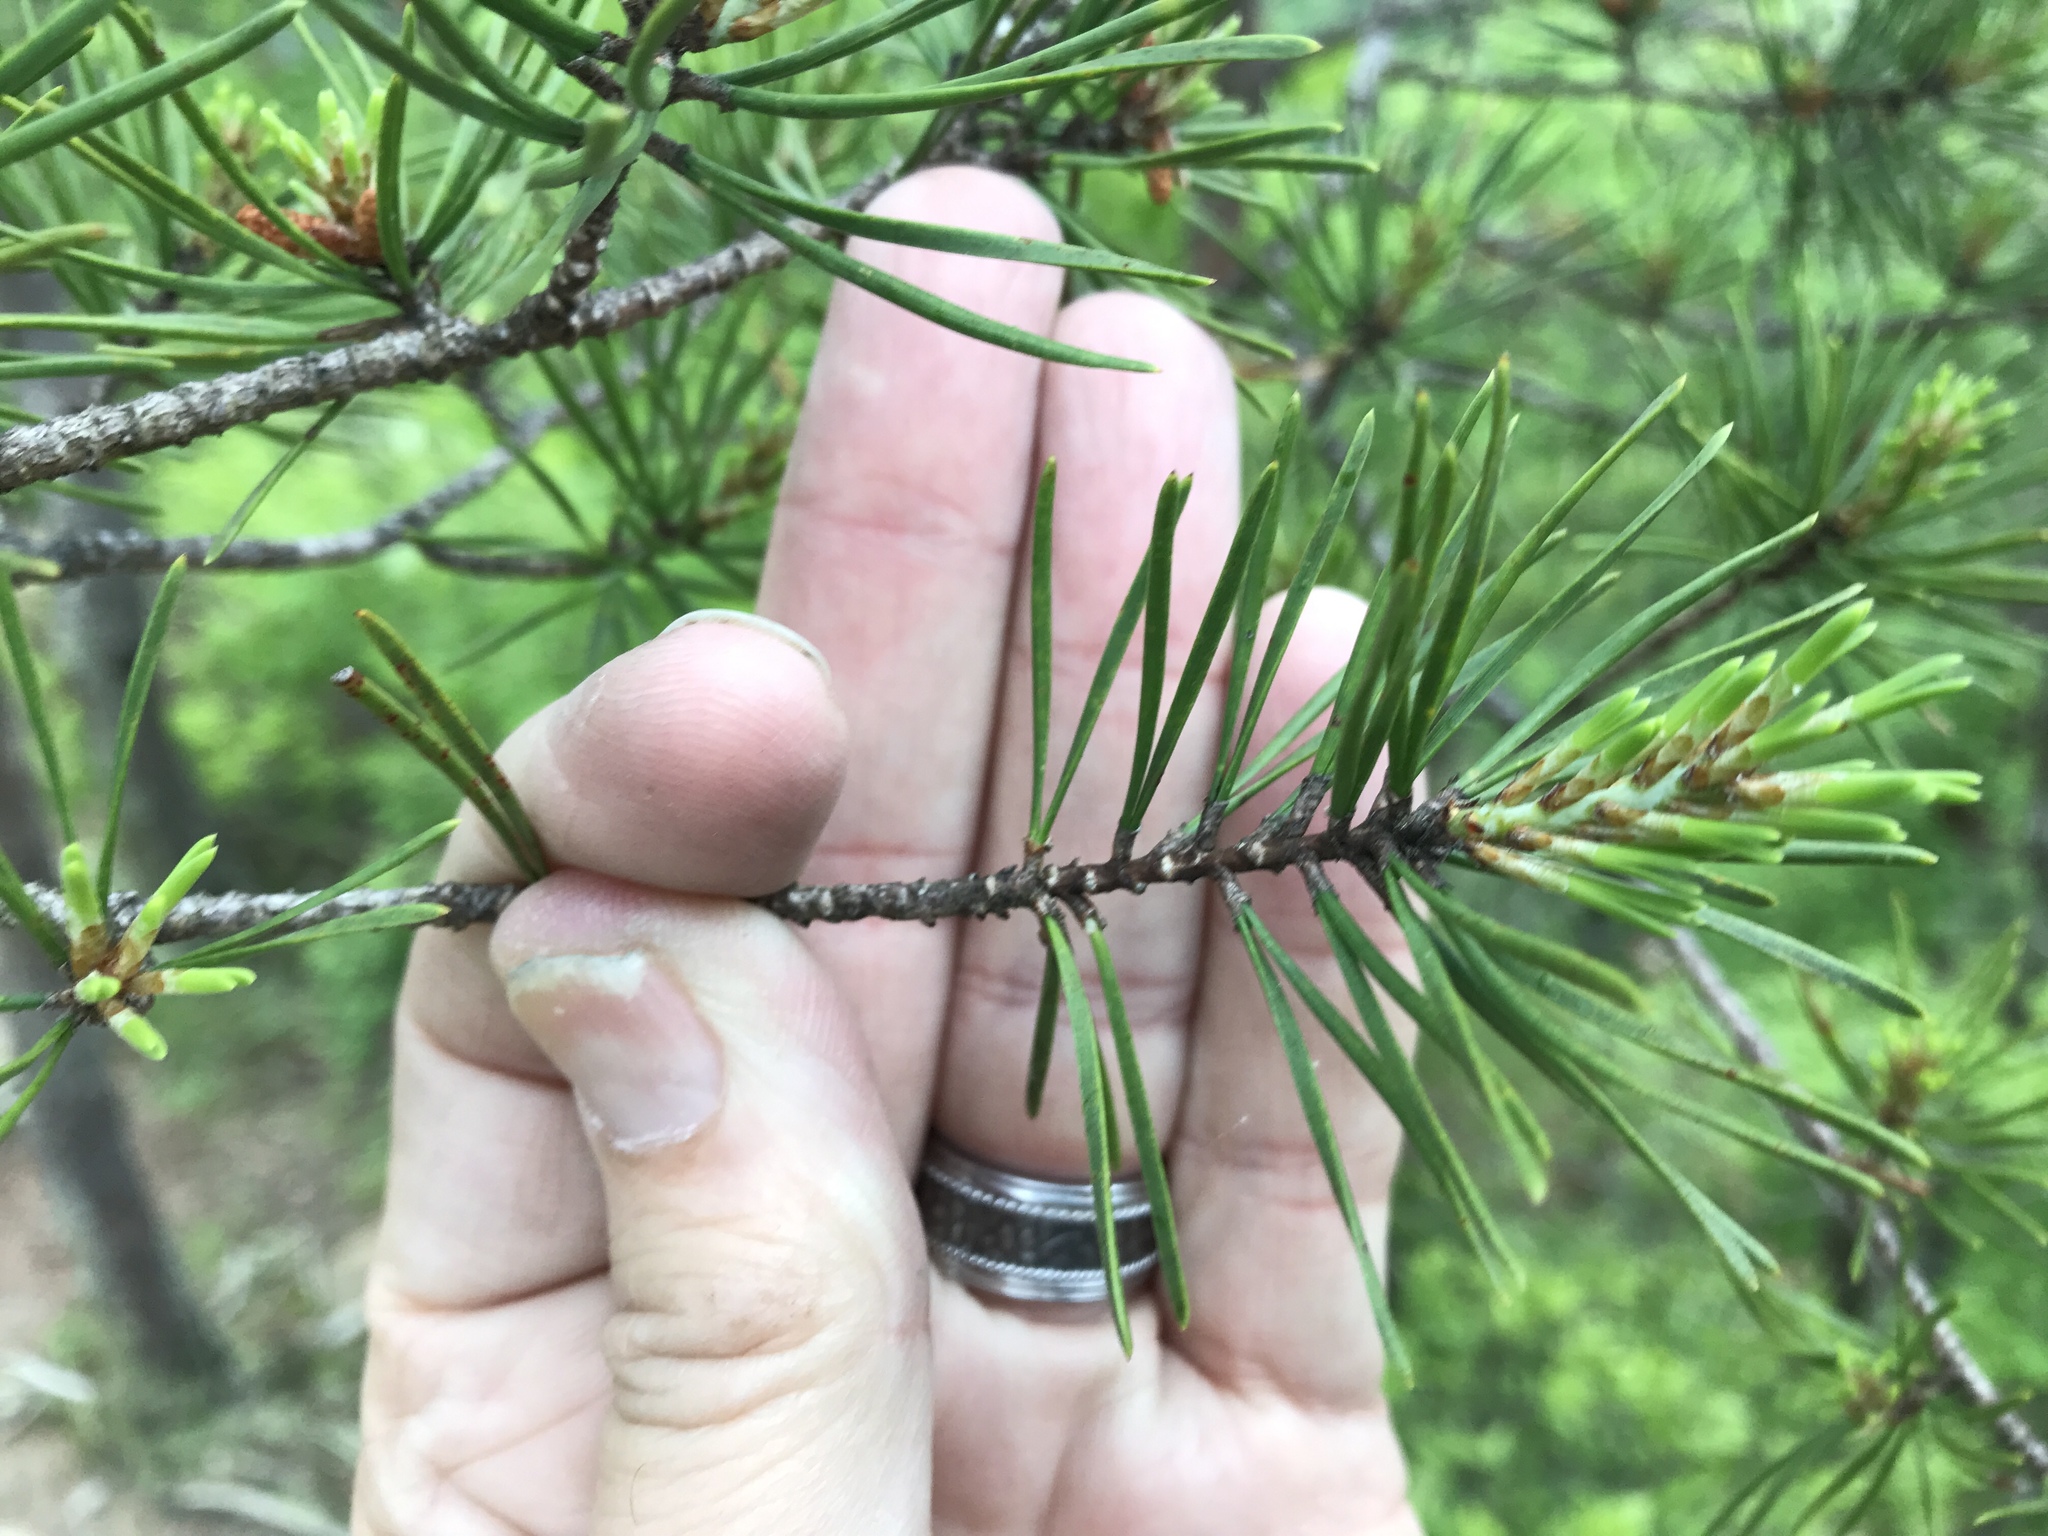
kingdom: Plantae
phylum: Tracheophyta
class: Pinopsida
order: Pinales
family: Pinaceae
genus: Pinus
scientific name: Pinus virginiana
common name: Scrub pine
